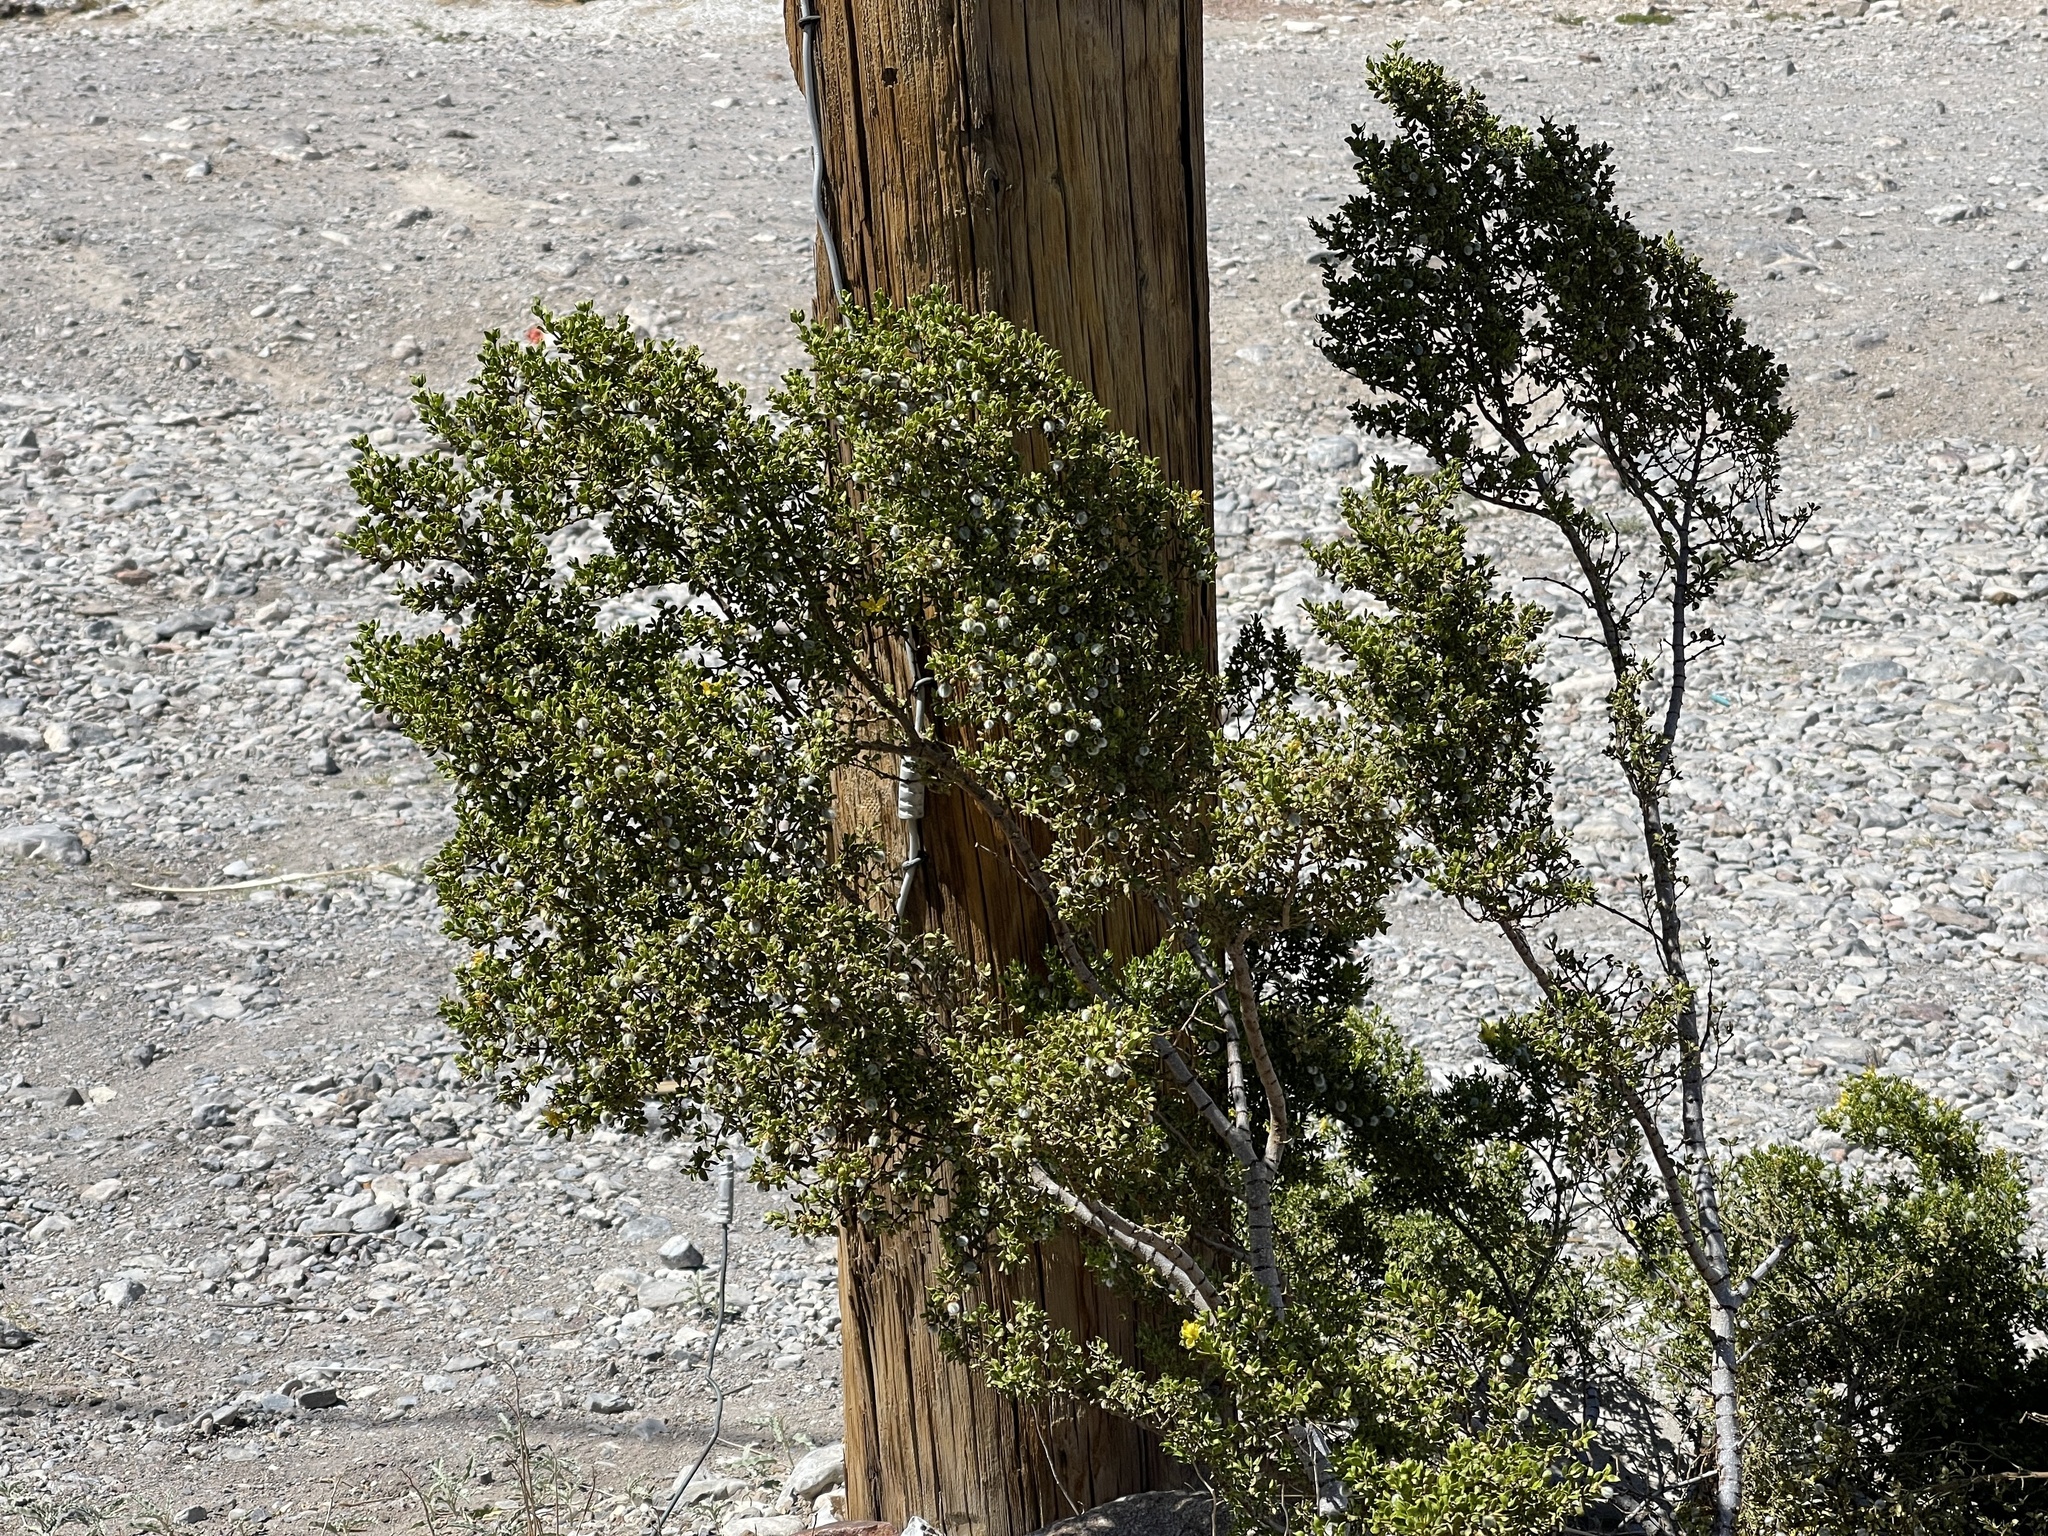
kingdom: Plantae
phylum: Tracheophyta
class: Magnoliopsida
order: Zygophyllales
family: Zygophyllaceae
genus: Larrea
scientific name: Larrea tridentata
